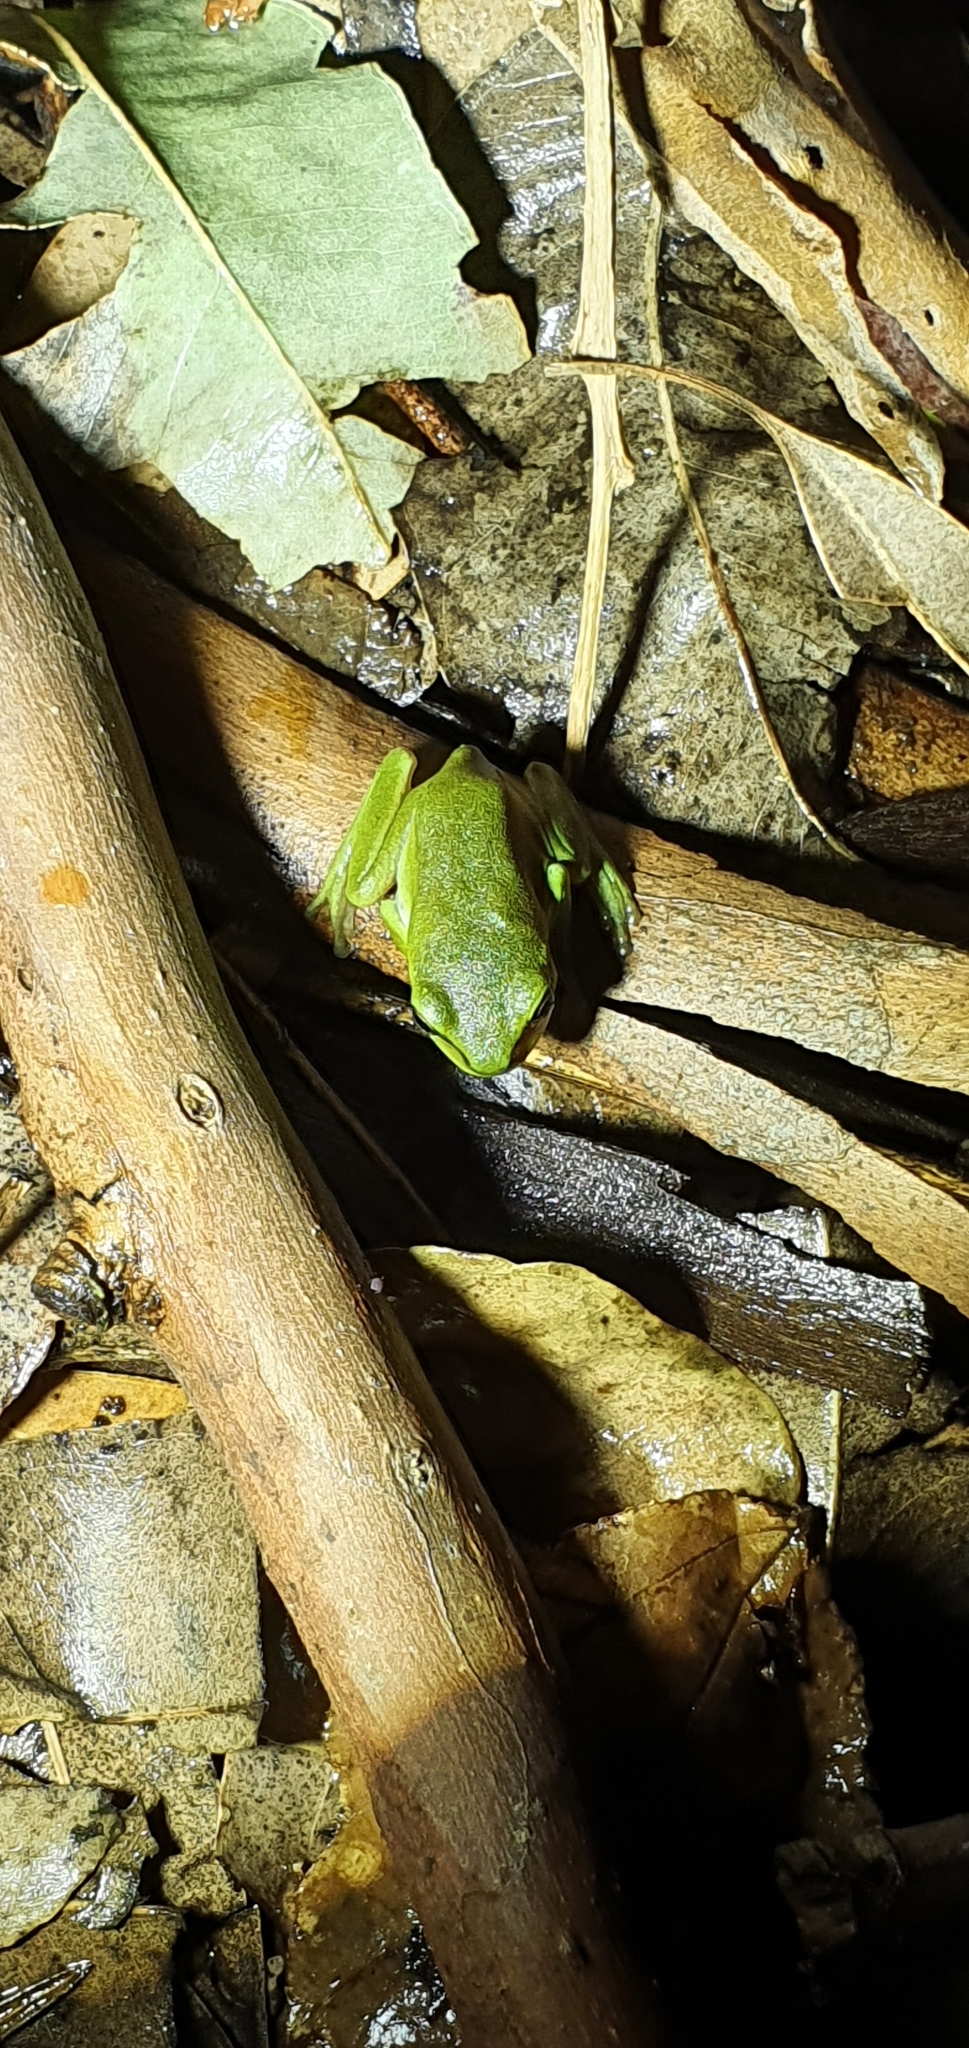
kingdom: Animalia
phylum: Chordata
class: Amphibia
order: Anura
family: Pelodryadidae
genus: Ranoidea
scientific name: Ranoidea caerulea
